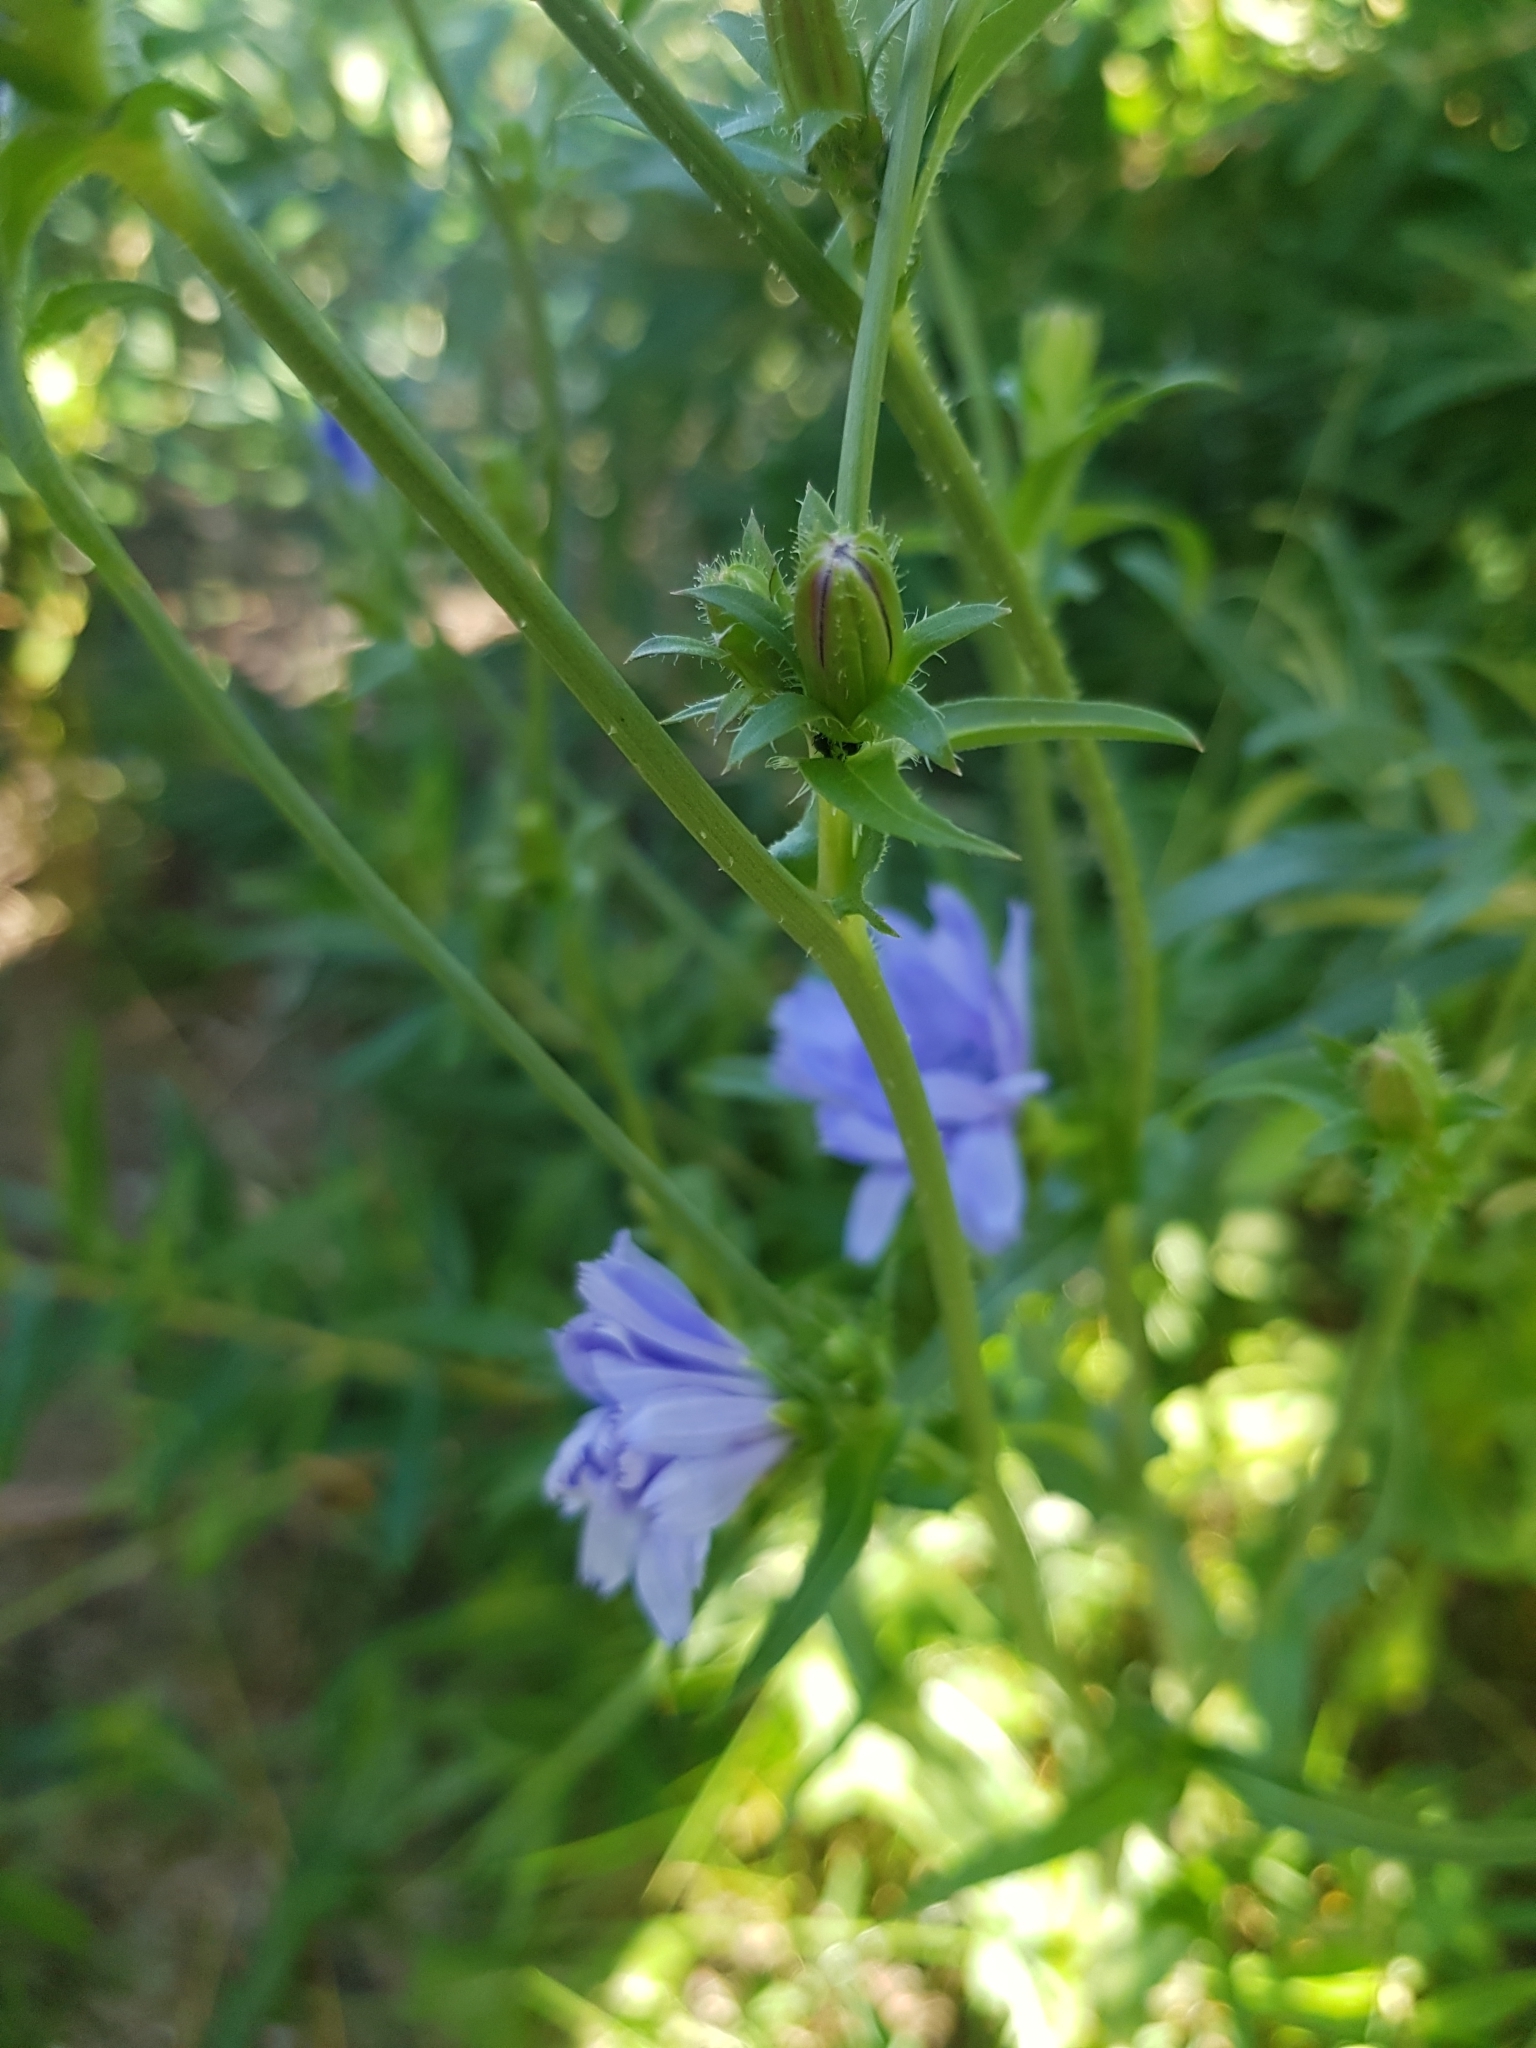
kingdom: Plantae
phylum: Tracheophyta
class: Magnoliopsida
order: Asterales
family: Asteraceae
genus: Cichorium
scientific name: Cichorium intybus
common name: Chicory
